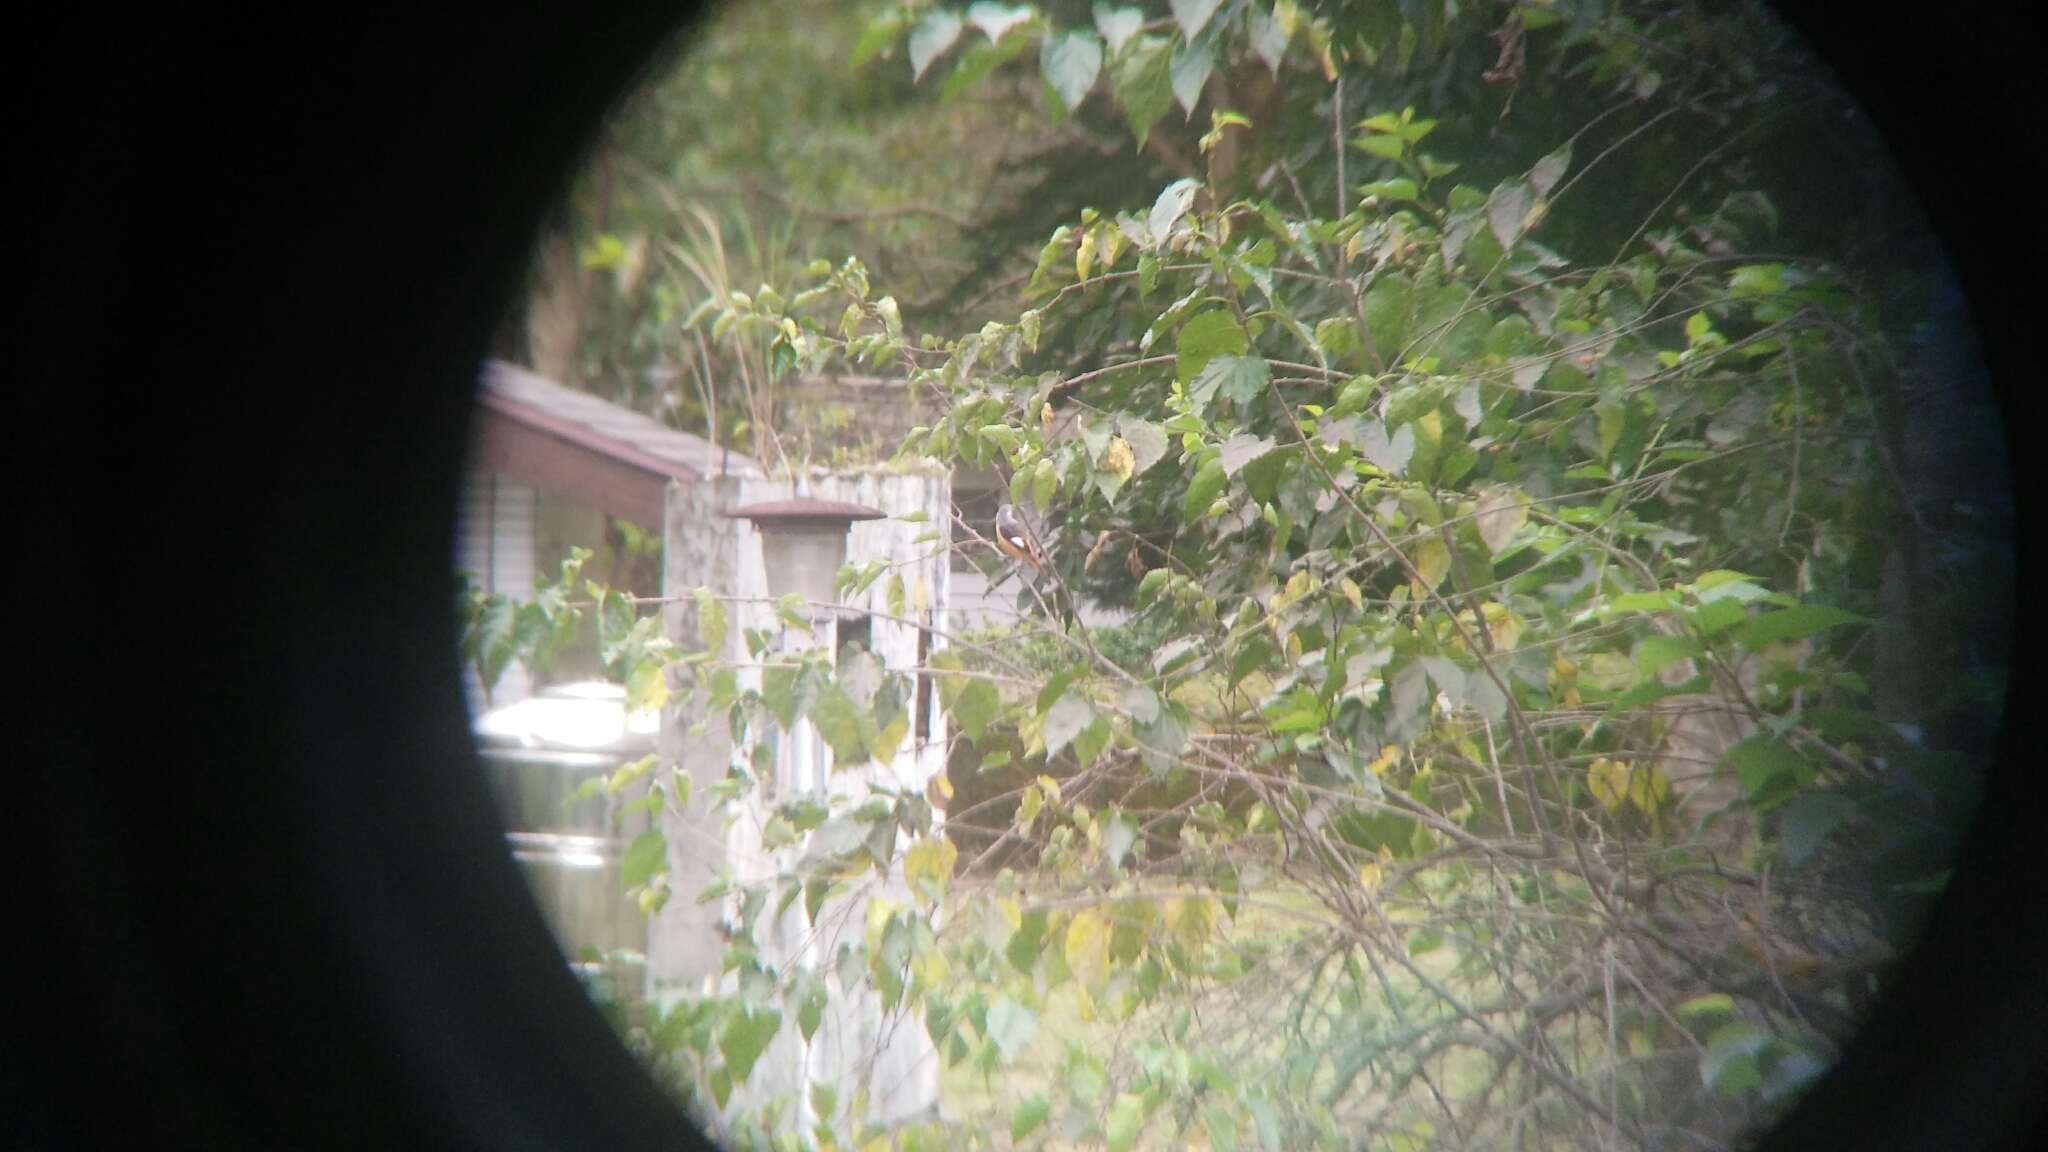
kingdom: Animalia
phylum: Chordata
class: Aves
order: Passeriformes
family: Muscicapidae
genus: Phoenicurus
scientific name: Phoenicurus auroreus
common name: Daurian redstart
